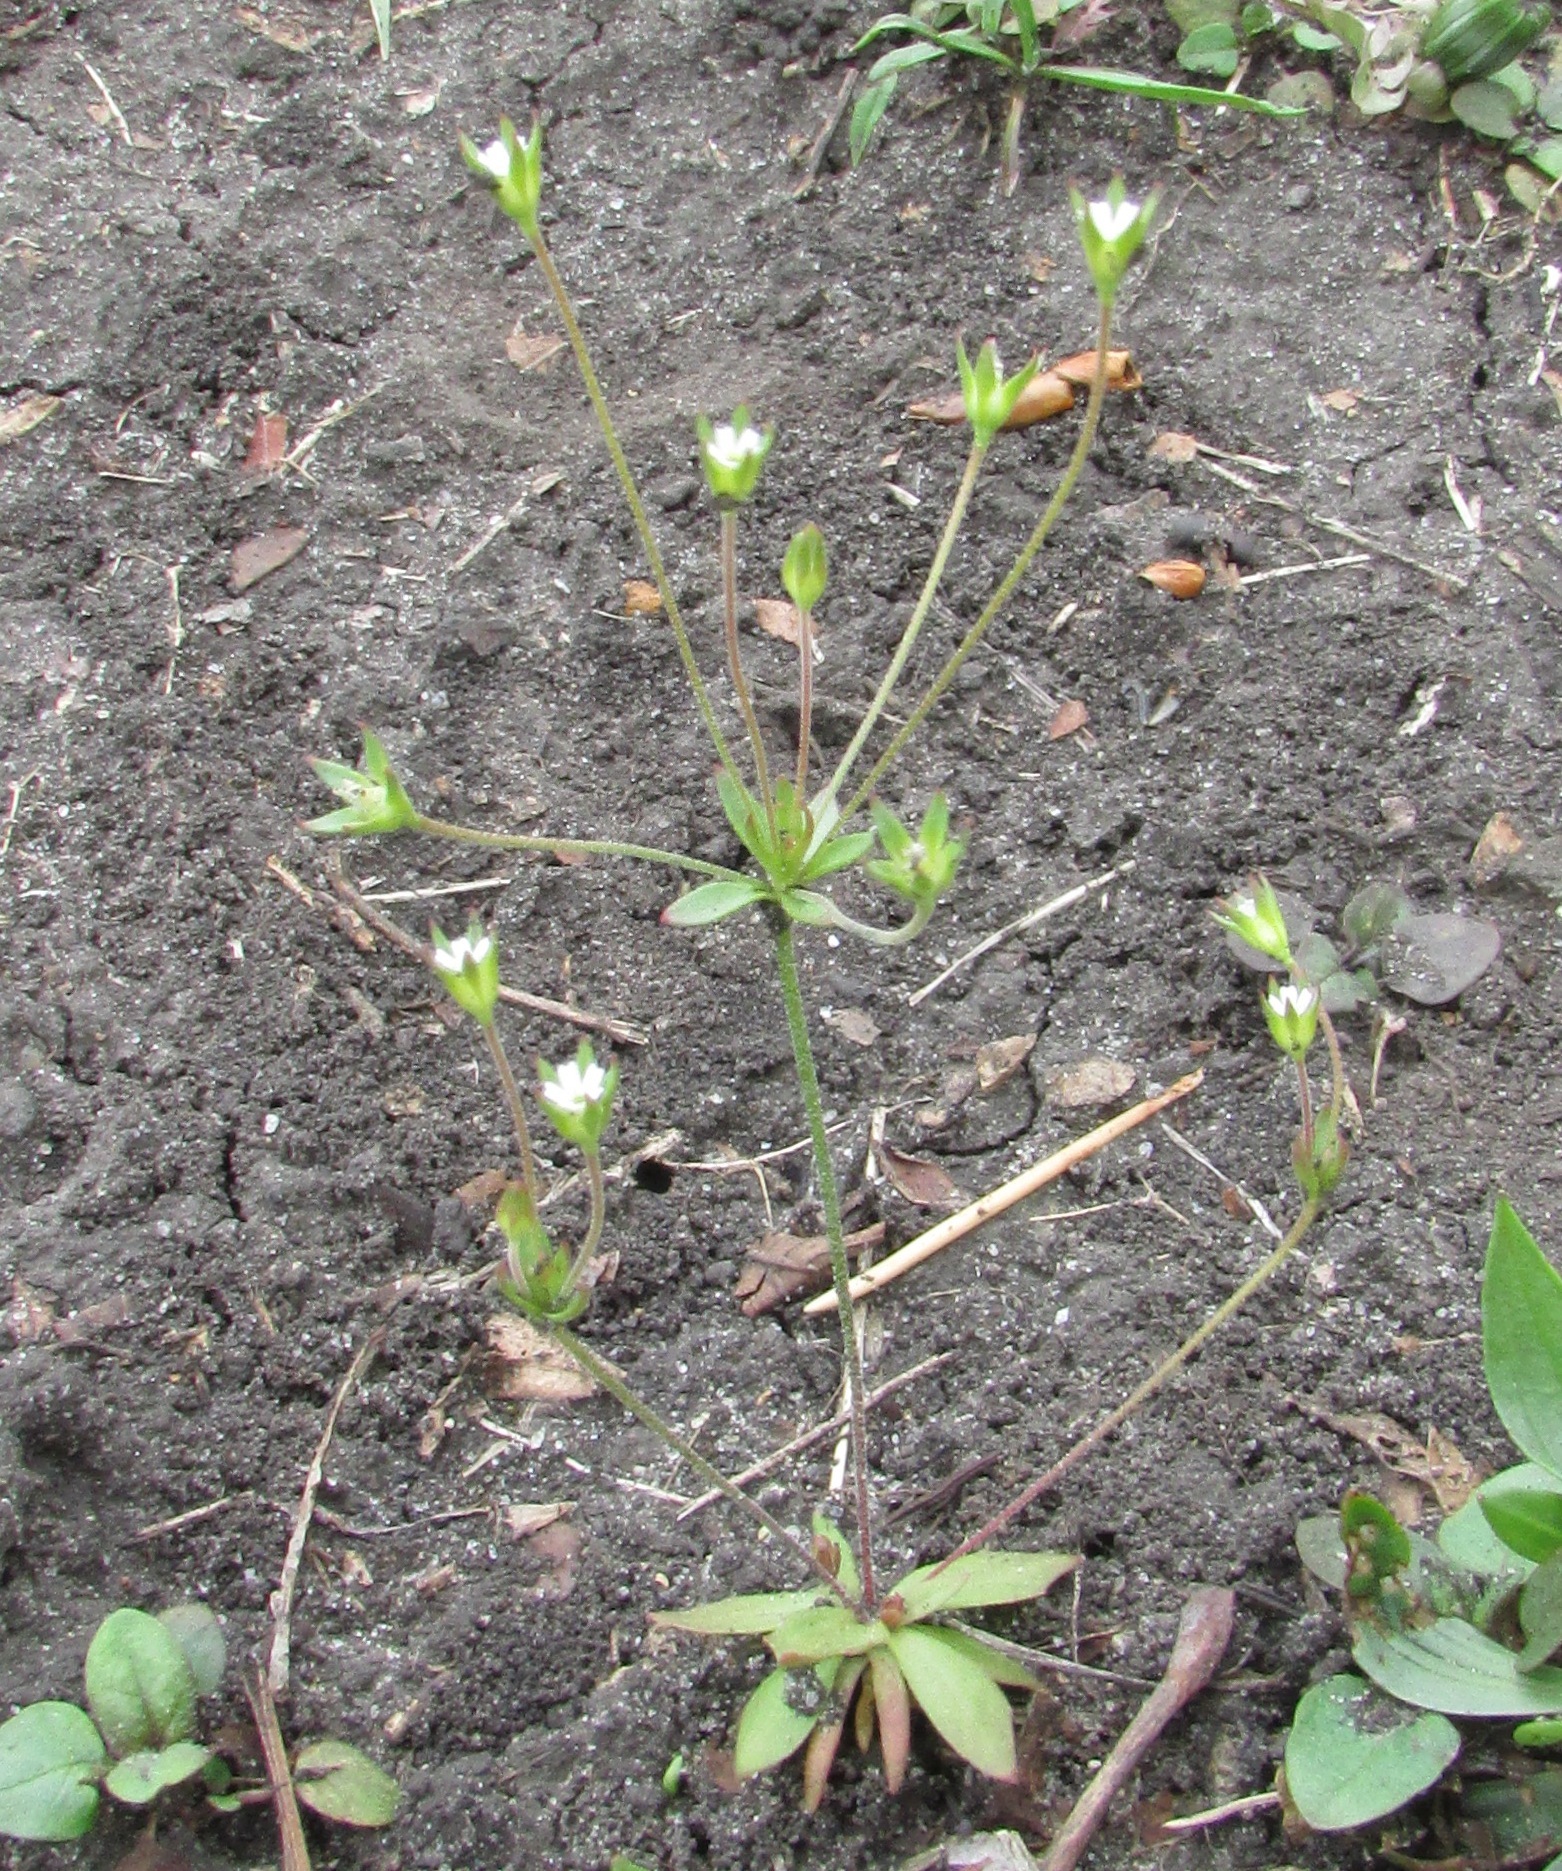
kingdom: Plantae
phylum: Tracheophyta
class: Magnoliopsida
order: Ericales
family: Primulaceae
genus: Androsace
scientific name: Androsace elongata
